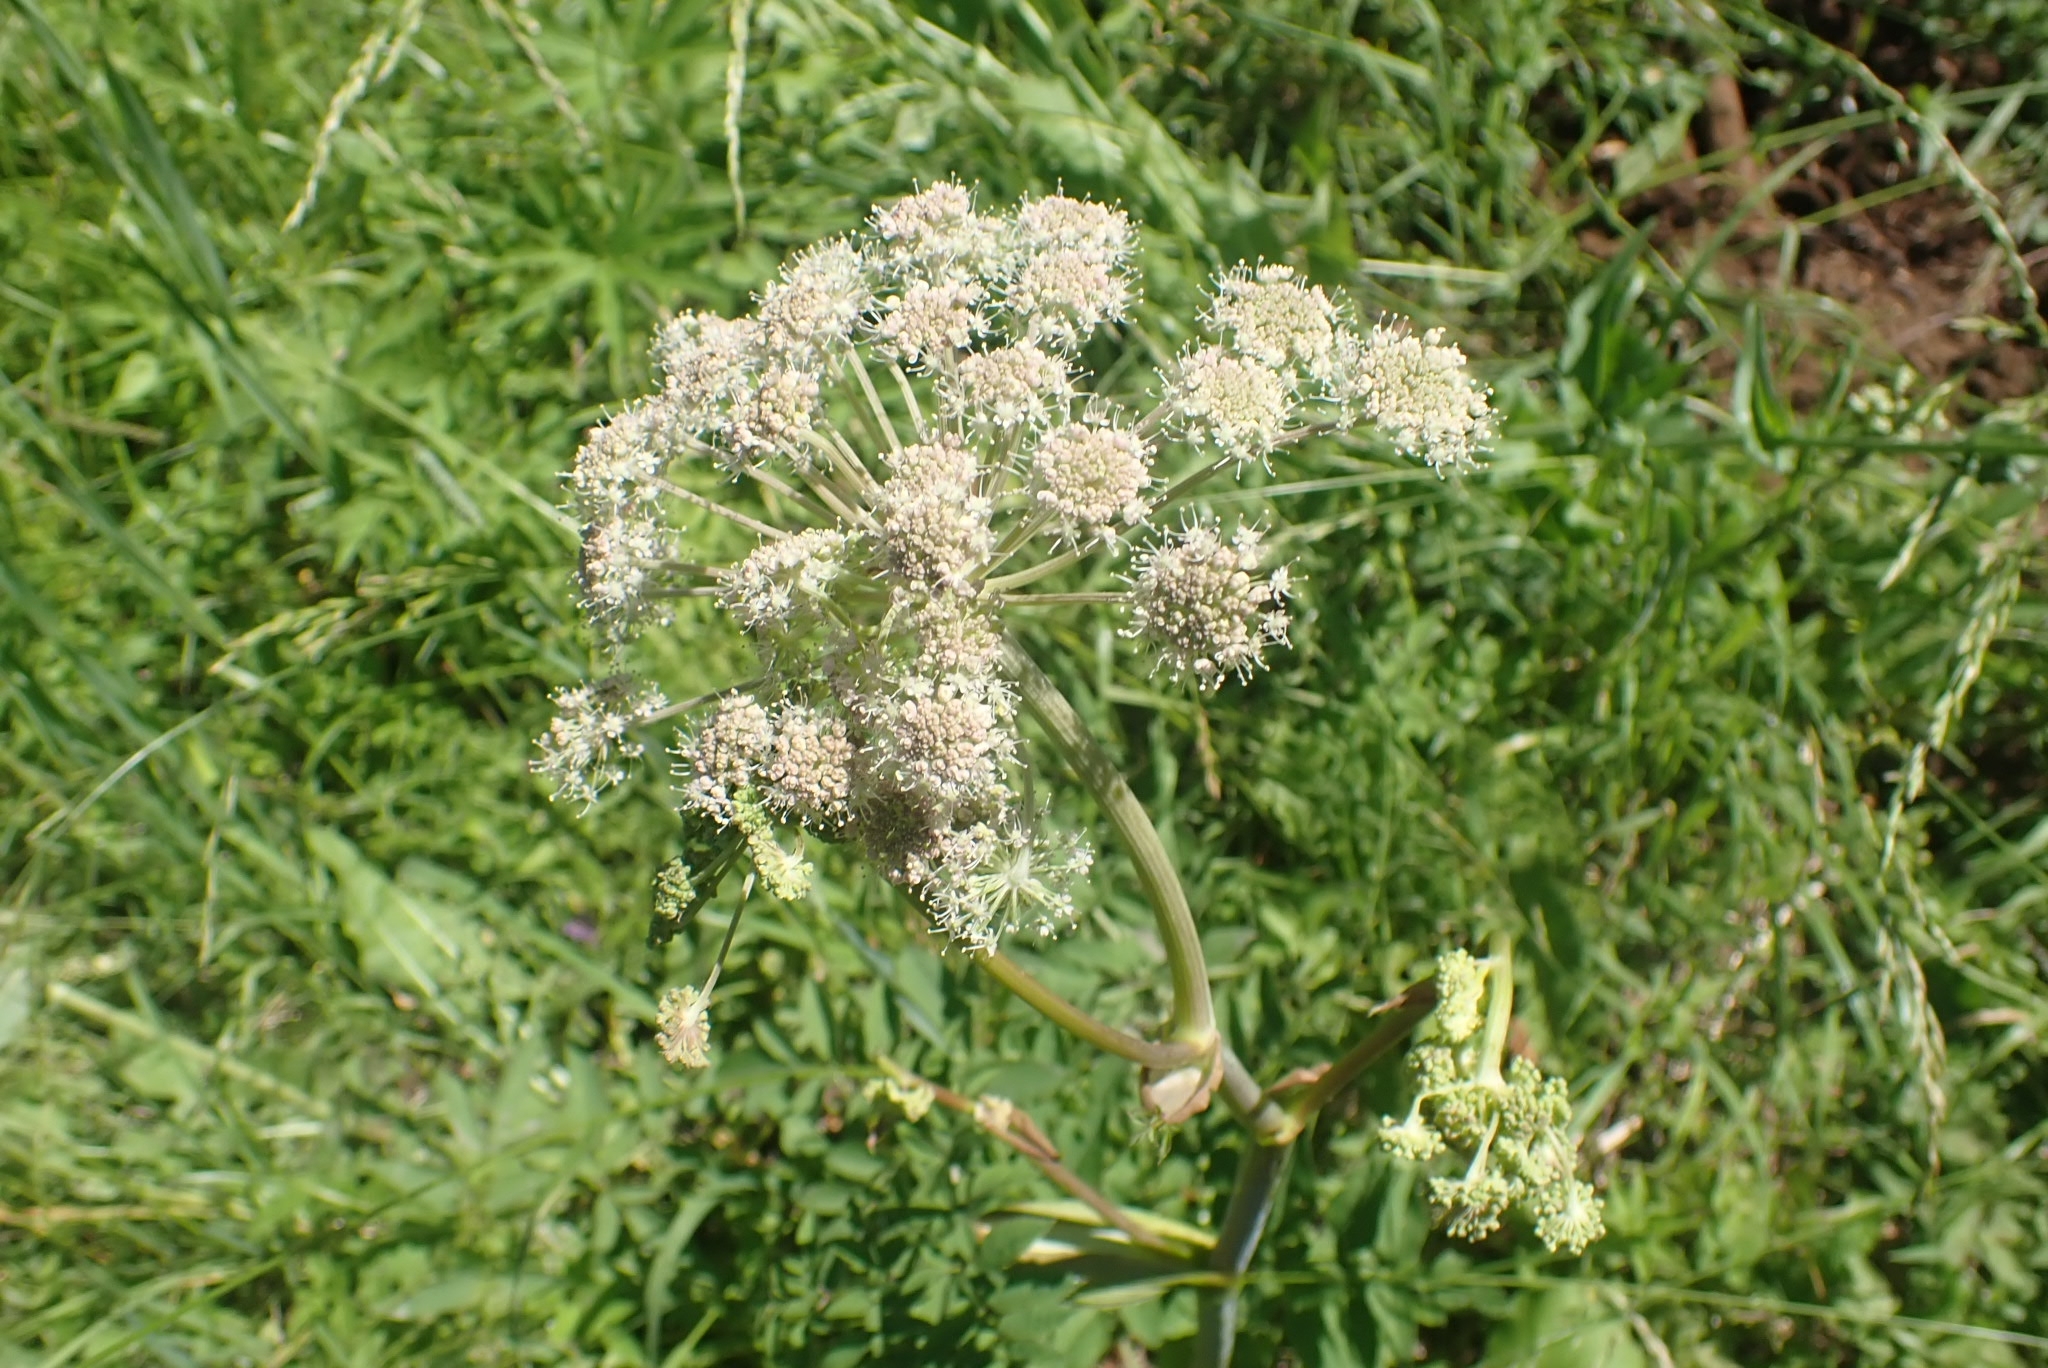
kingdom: Plantae
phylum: Tracheophyta
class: Magnoliopsida
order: Apiales
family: Apiaceae
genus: Angelica
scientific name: Angelica sylvestris
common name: Wild angelica
